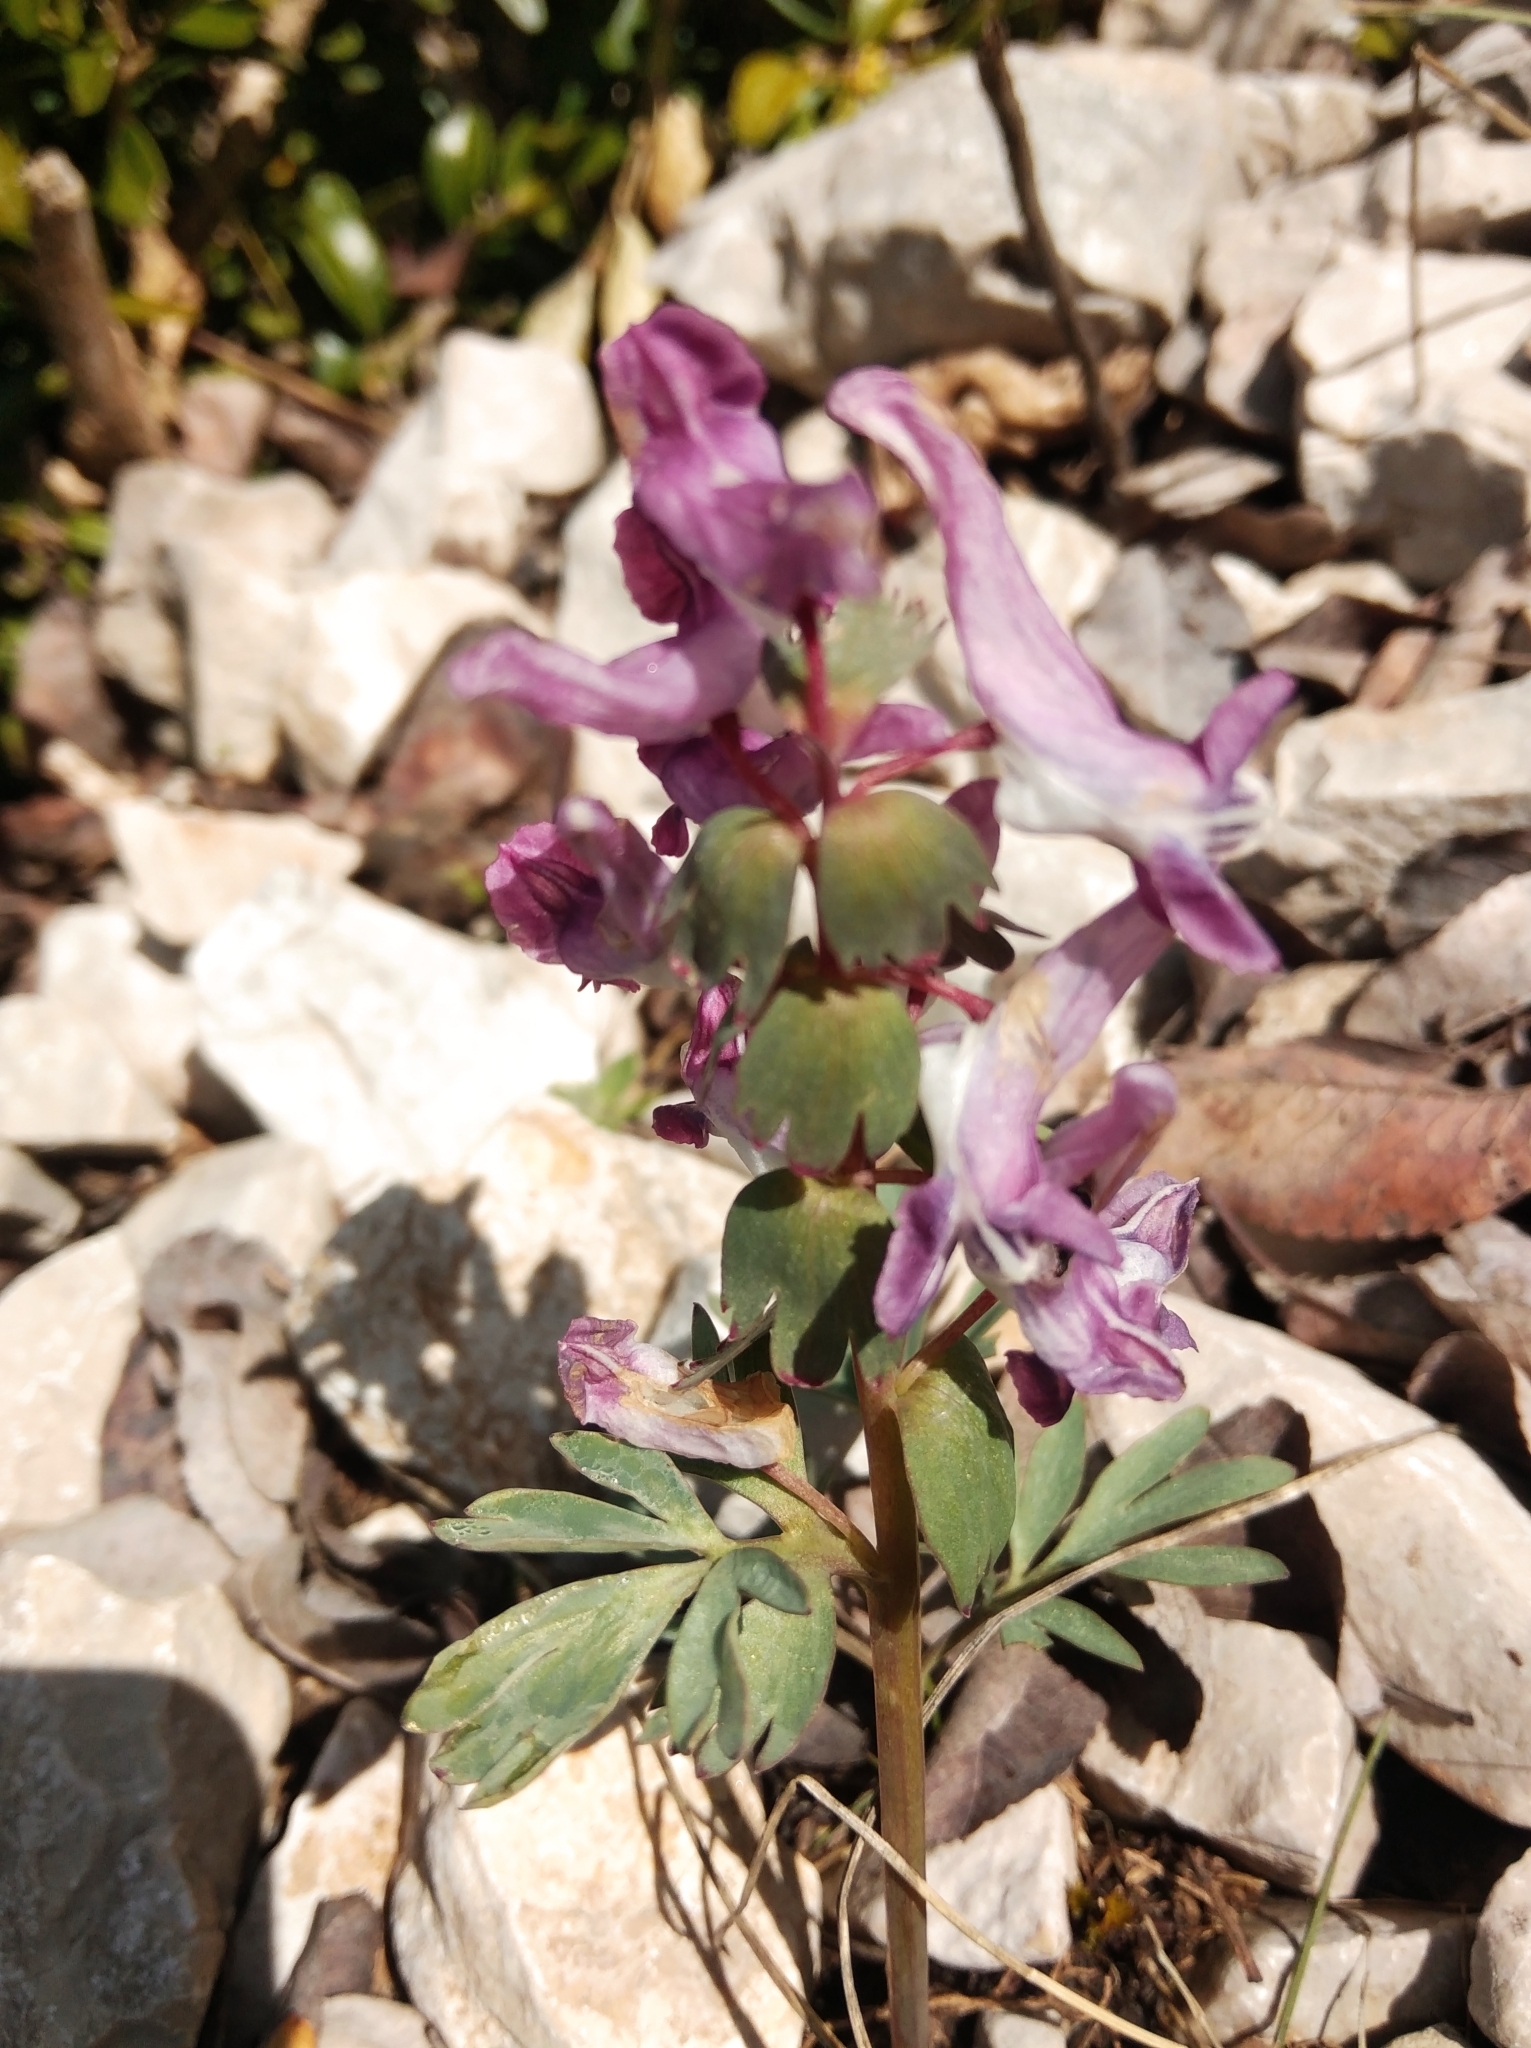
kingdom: Plantae
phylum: Tracheophyta
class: Magnoliopsida
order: Ranunculales
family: Papaveraceae
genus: Corydalis
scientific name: Corydalis solida
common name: Bird-in-a-bush
